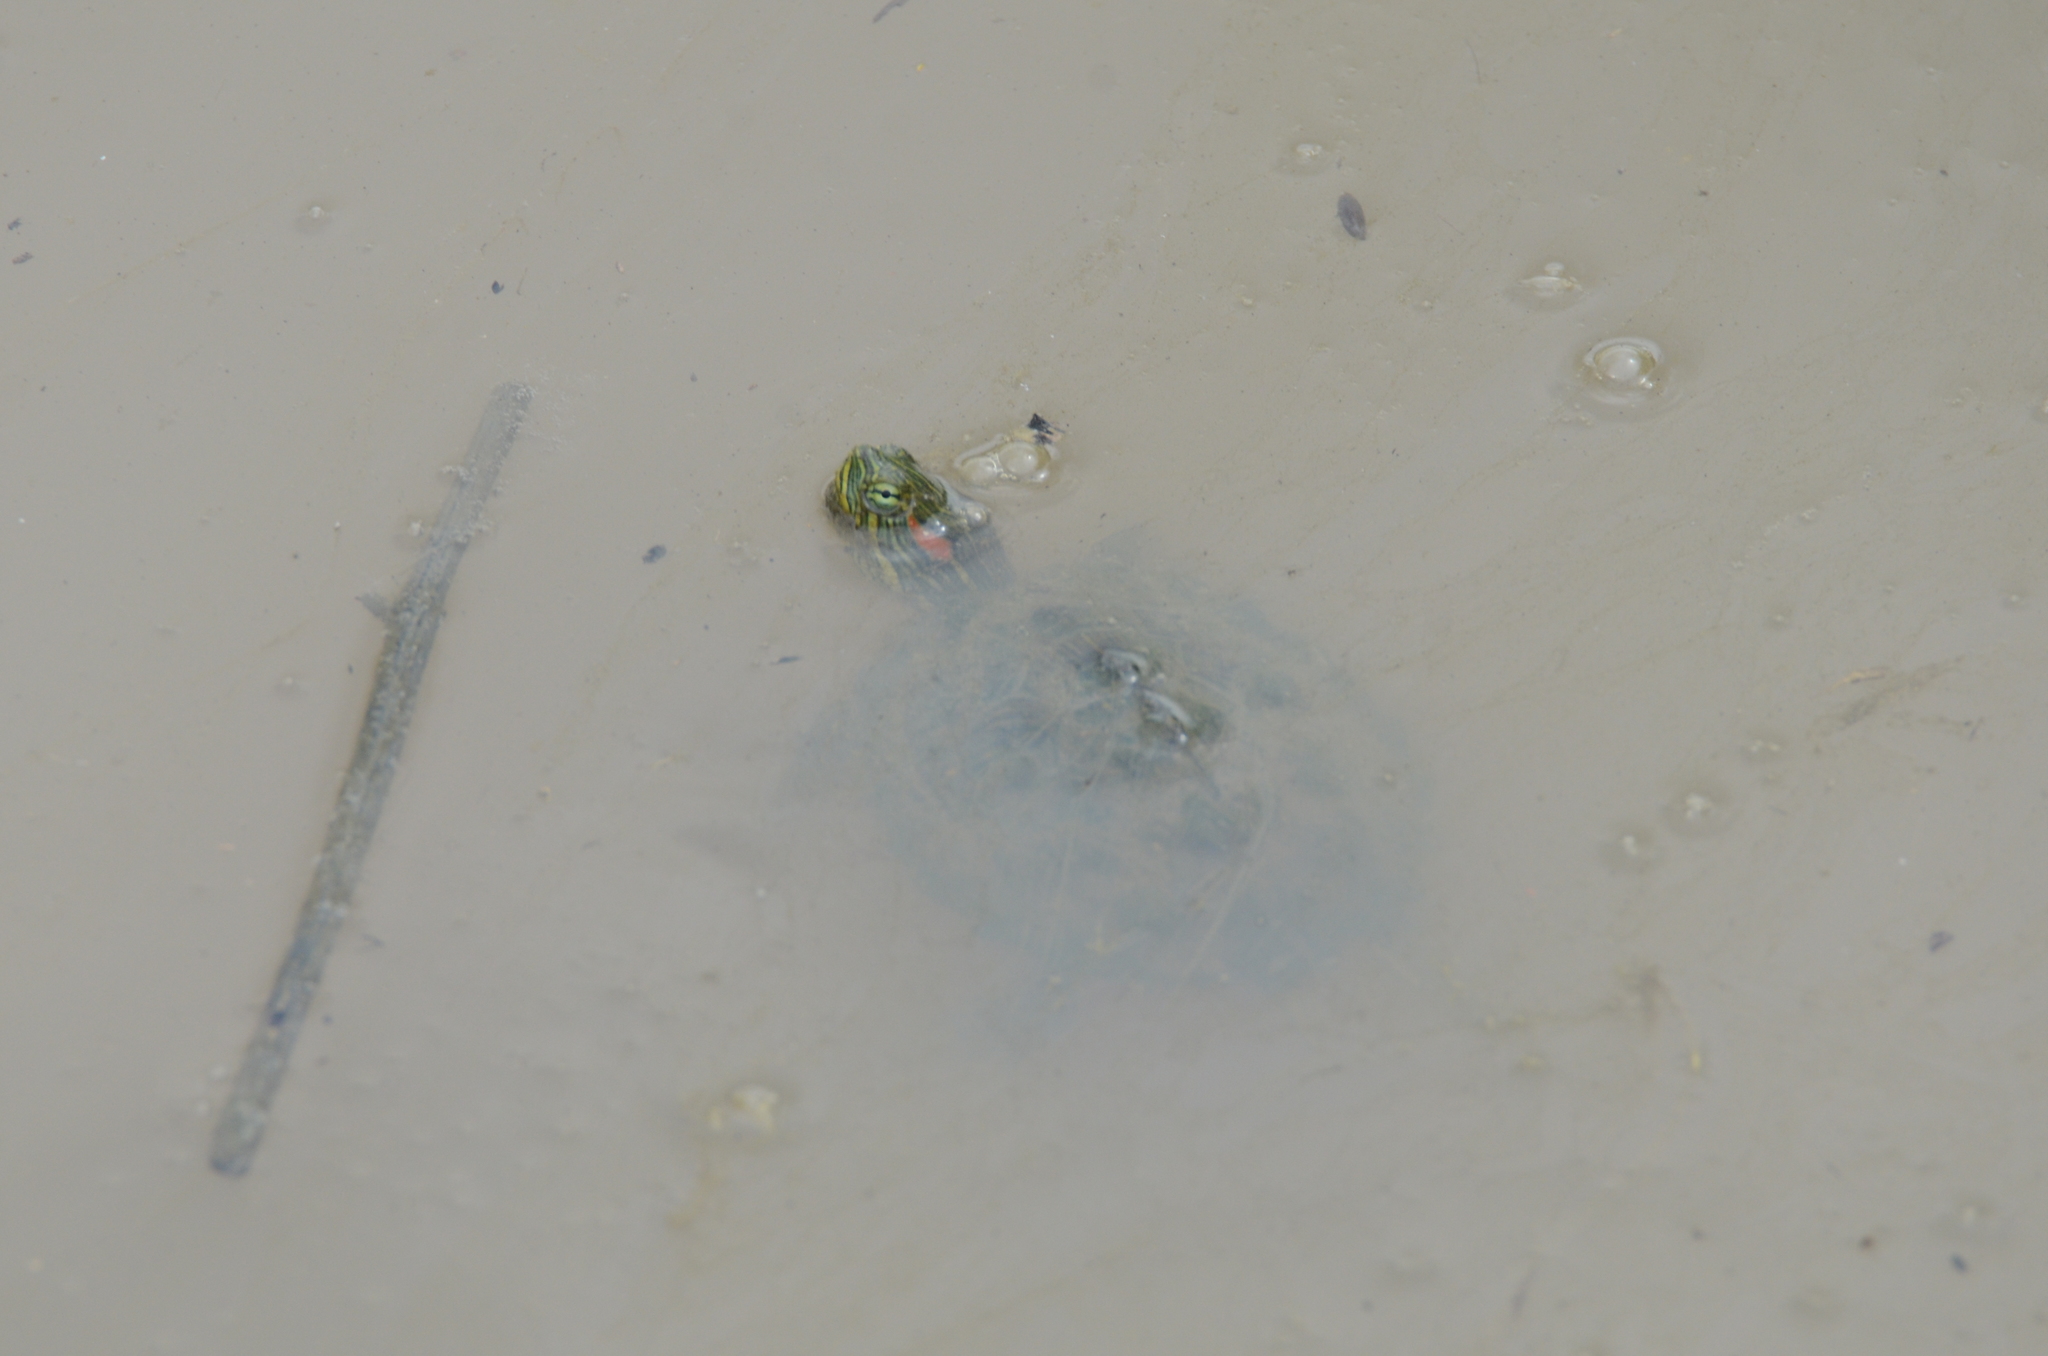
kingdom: Animalia
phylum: Chordata
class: Testudines
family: Emydidae
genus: Trachemys
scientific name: Trachemys scripta
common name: Slider
